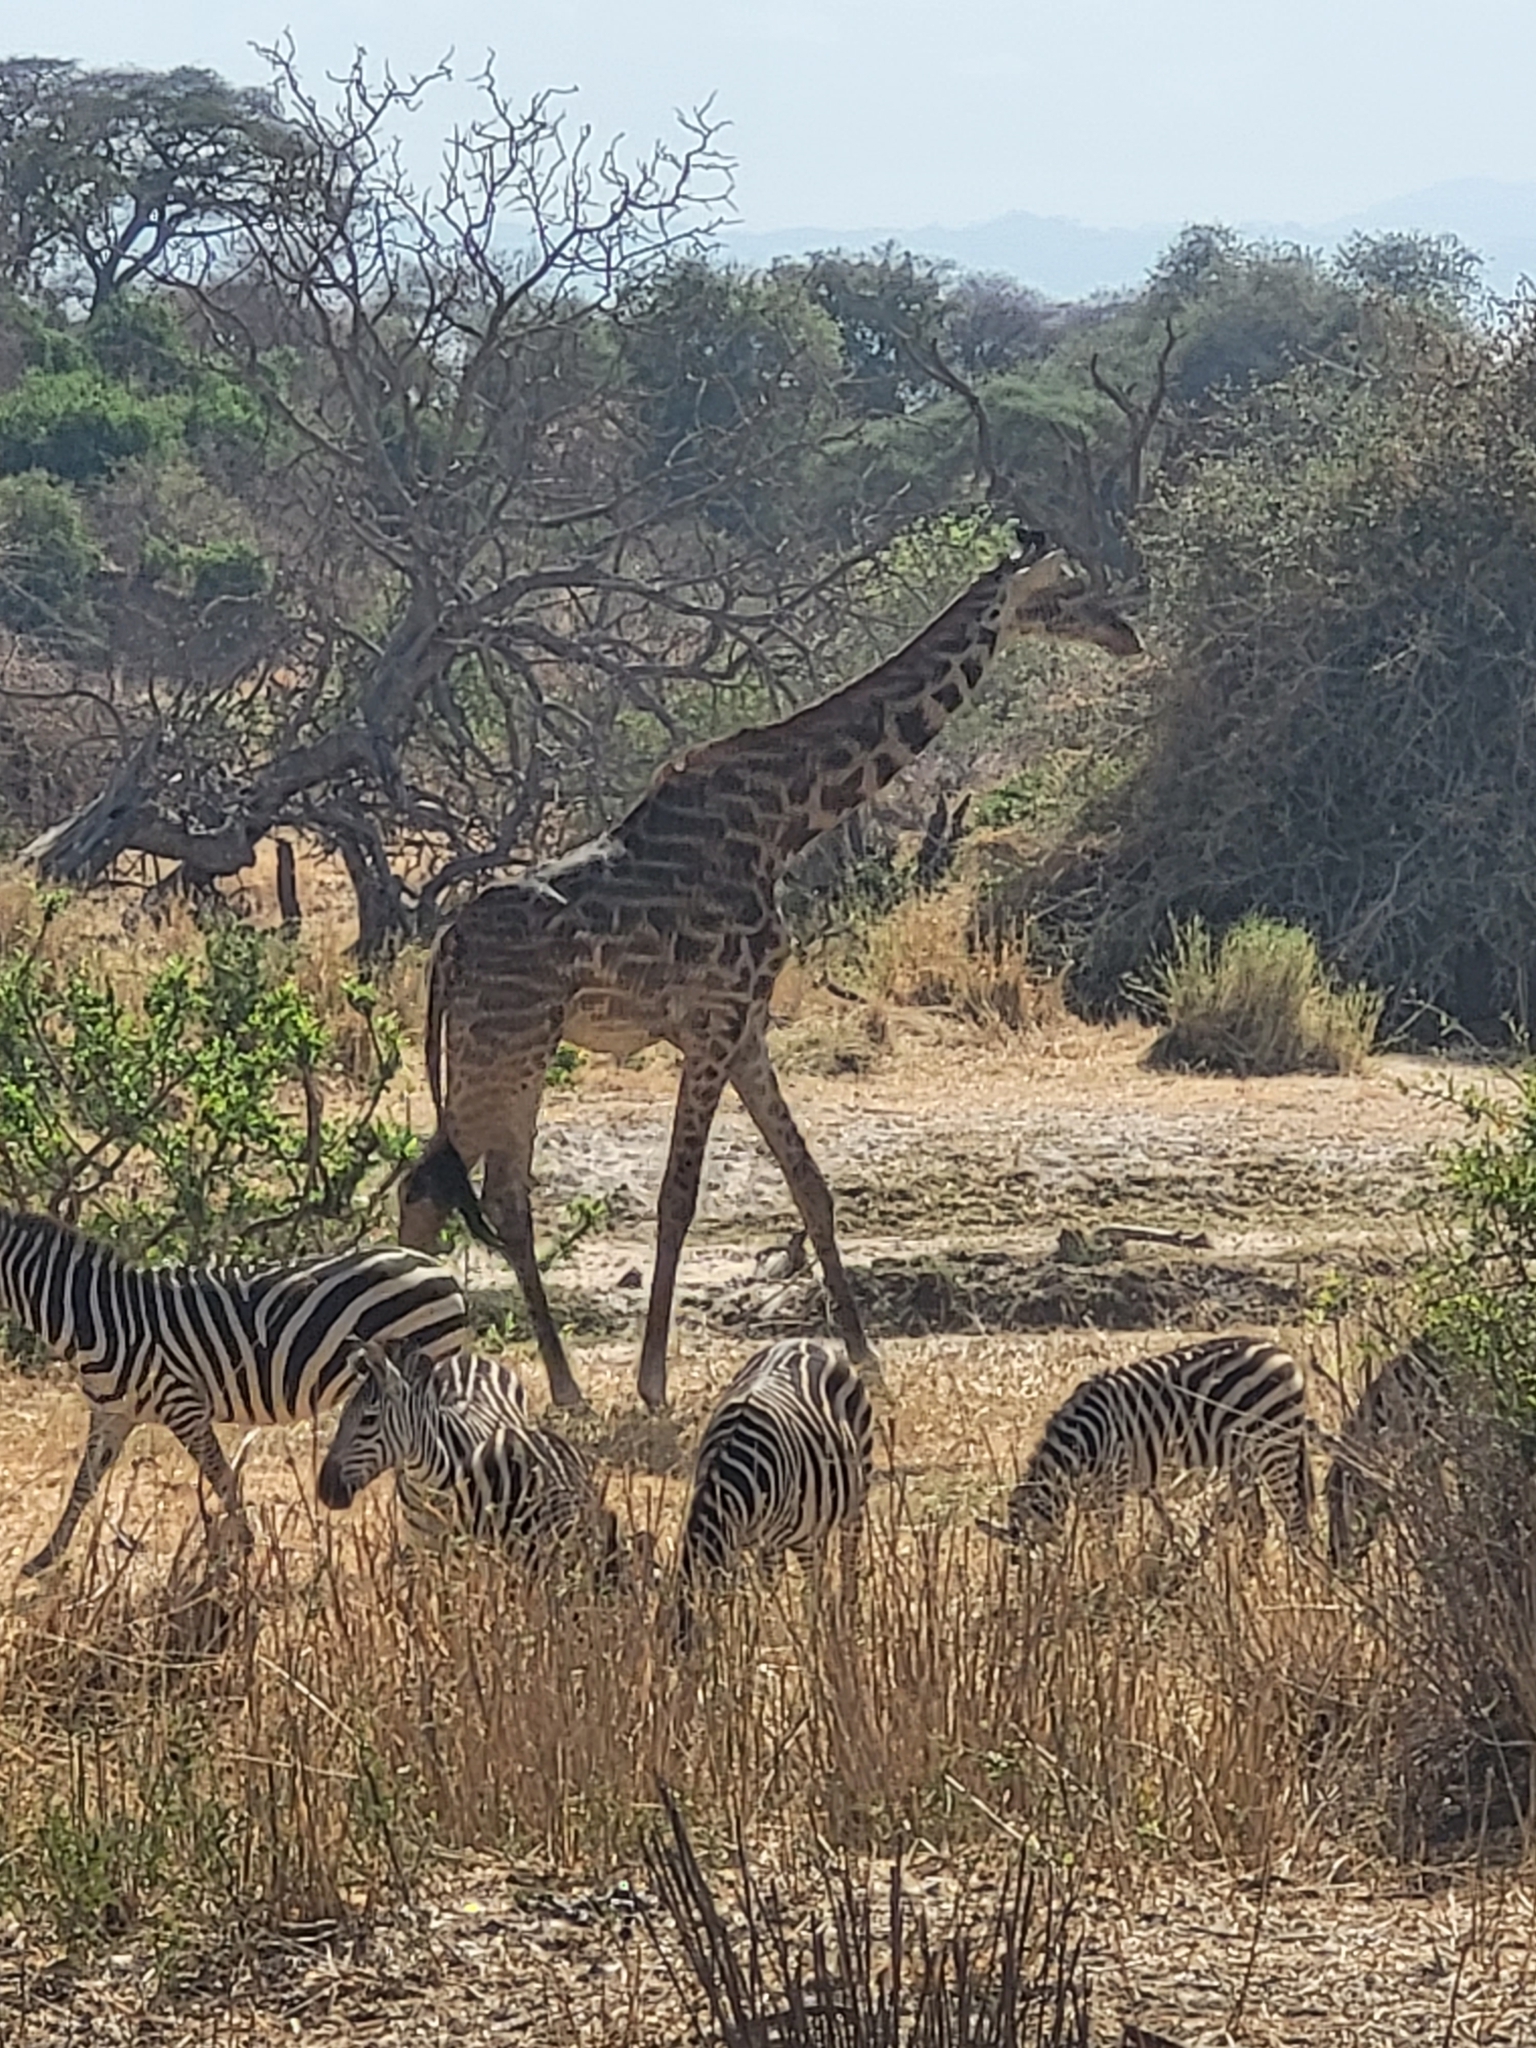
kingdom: Animalia
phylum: Chordata
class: Mammalia
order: Artiodactyla
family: Giraffidae
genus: Giraffa
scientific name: Giraffa tippelskirchi
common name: Masai giraffe
